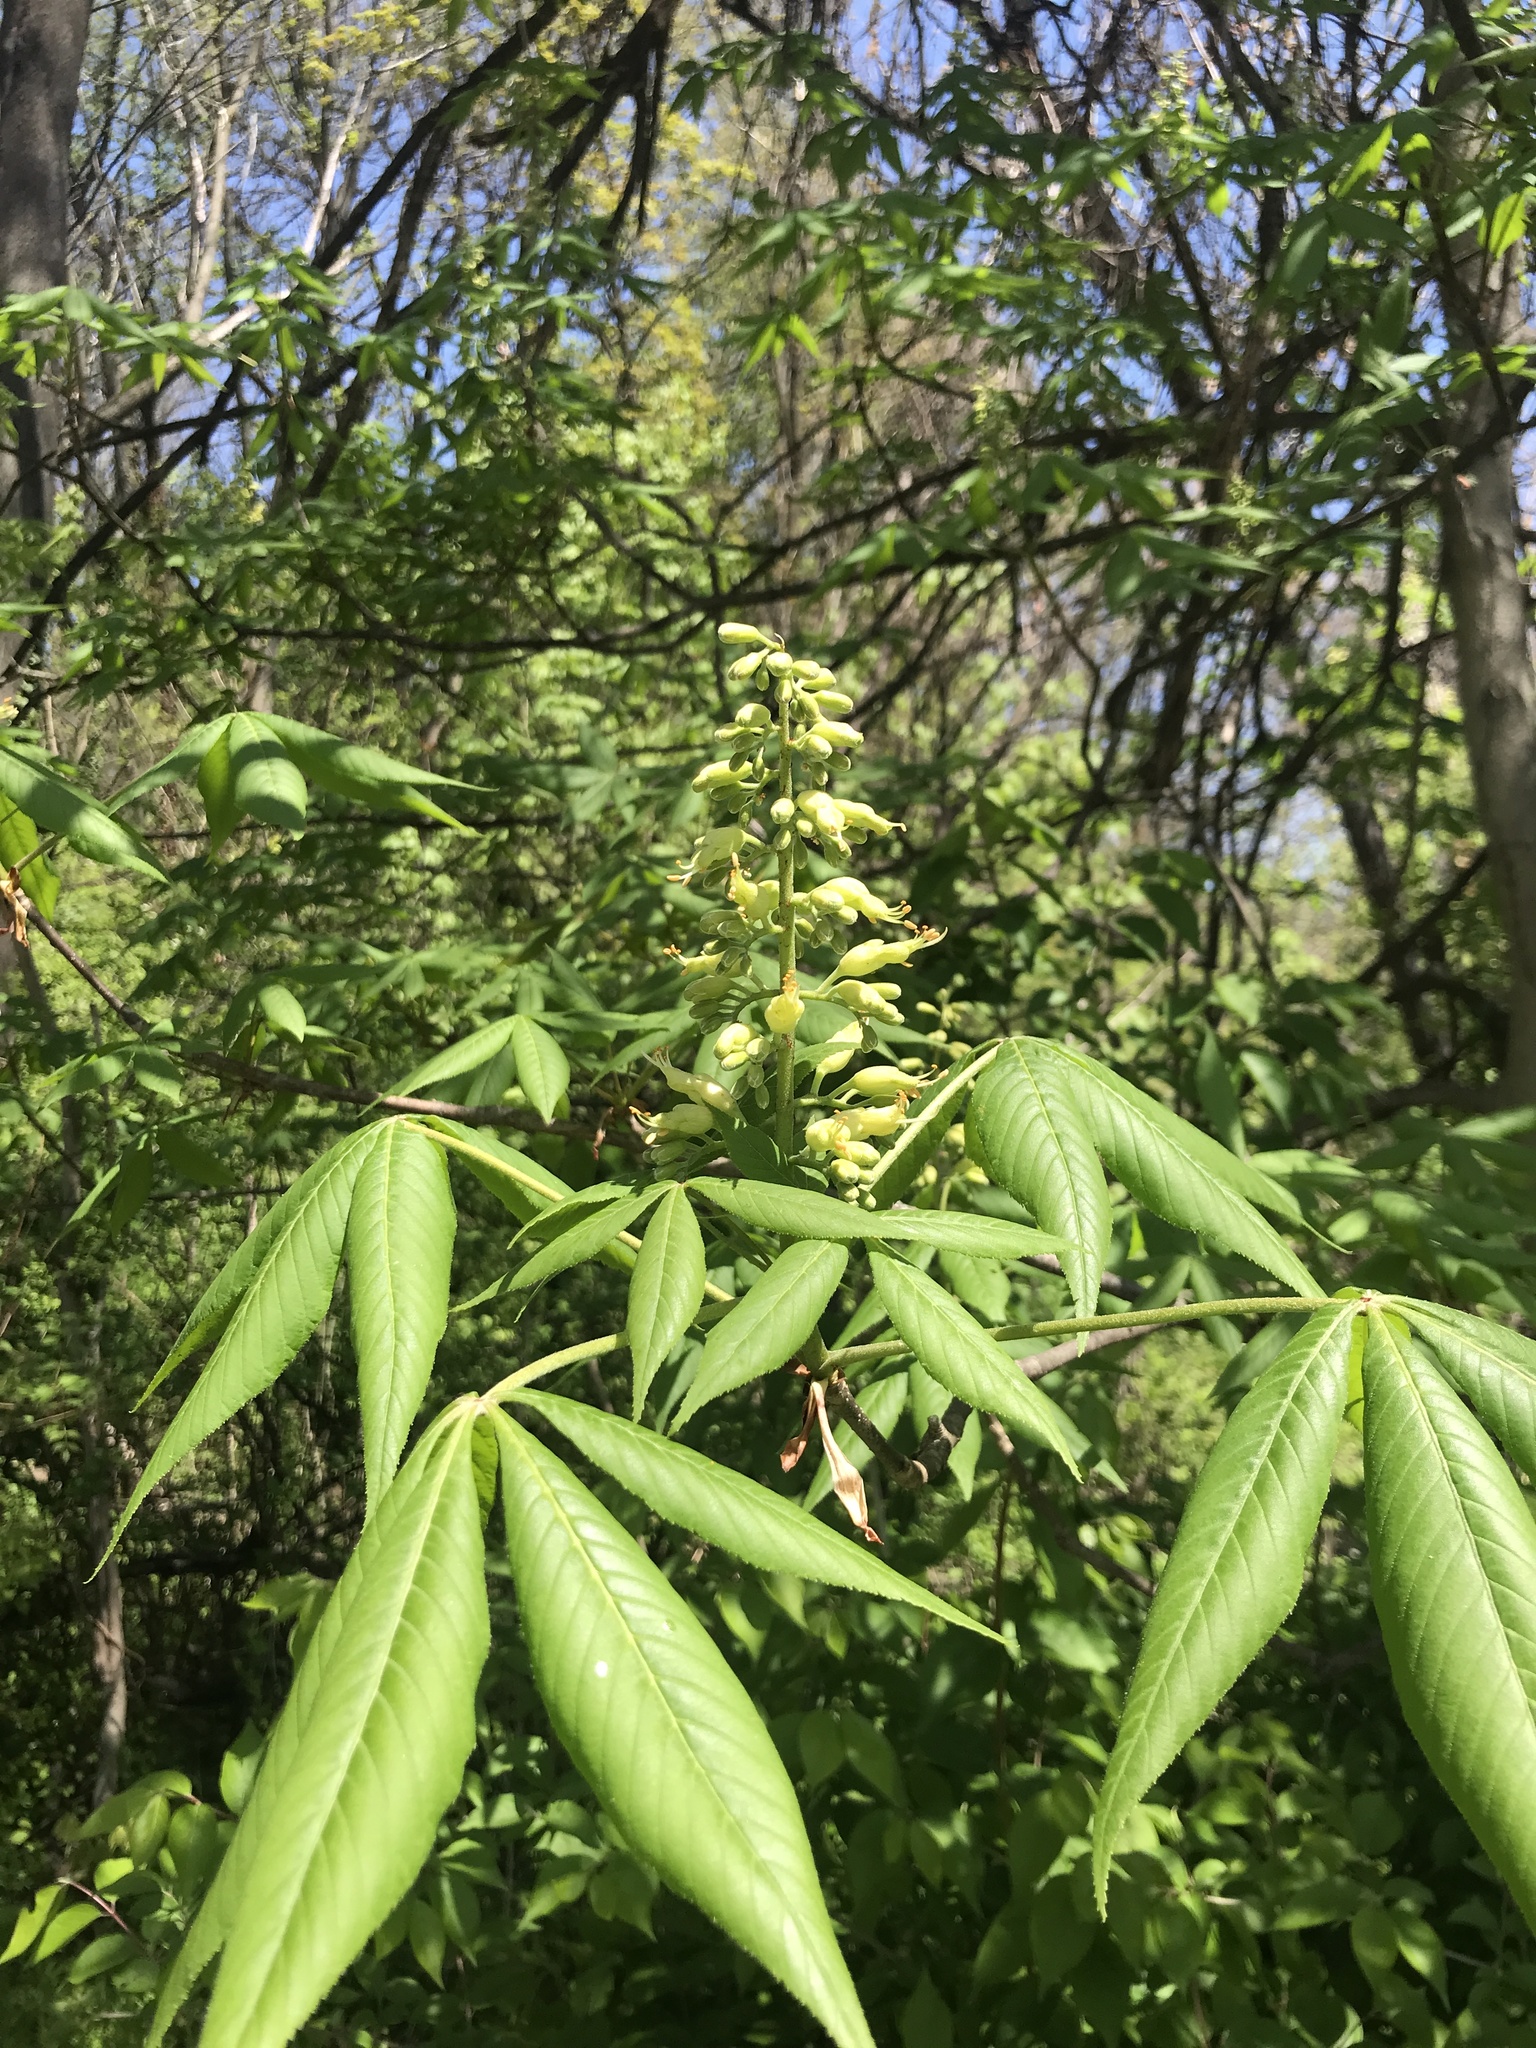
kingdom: Plantae
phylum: Tracheophyta
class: Magnoliopsida
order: Sapindales
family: Sapindaceae
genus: Aesculus
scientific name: Aesculus glabra
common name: Ohio buckeye
